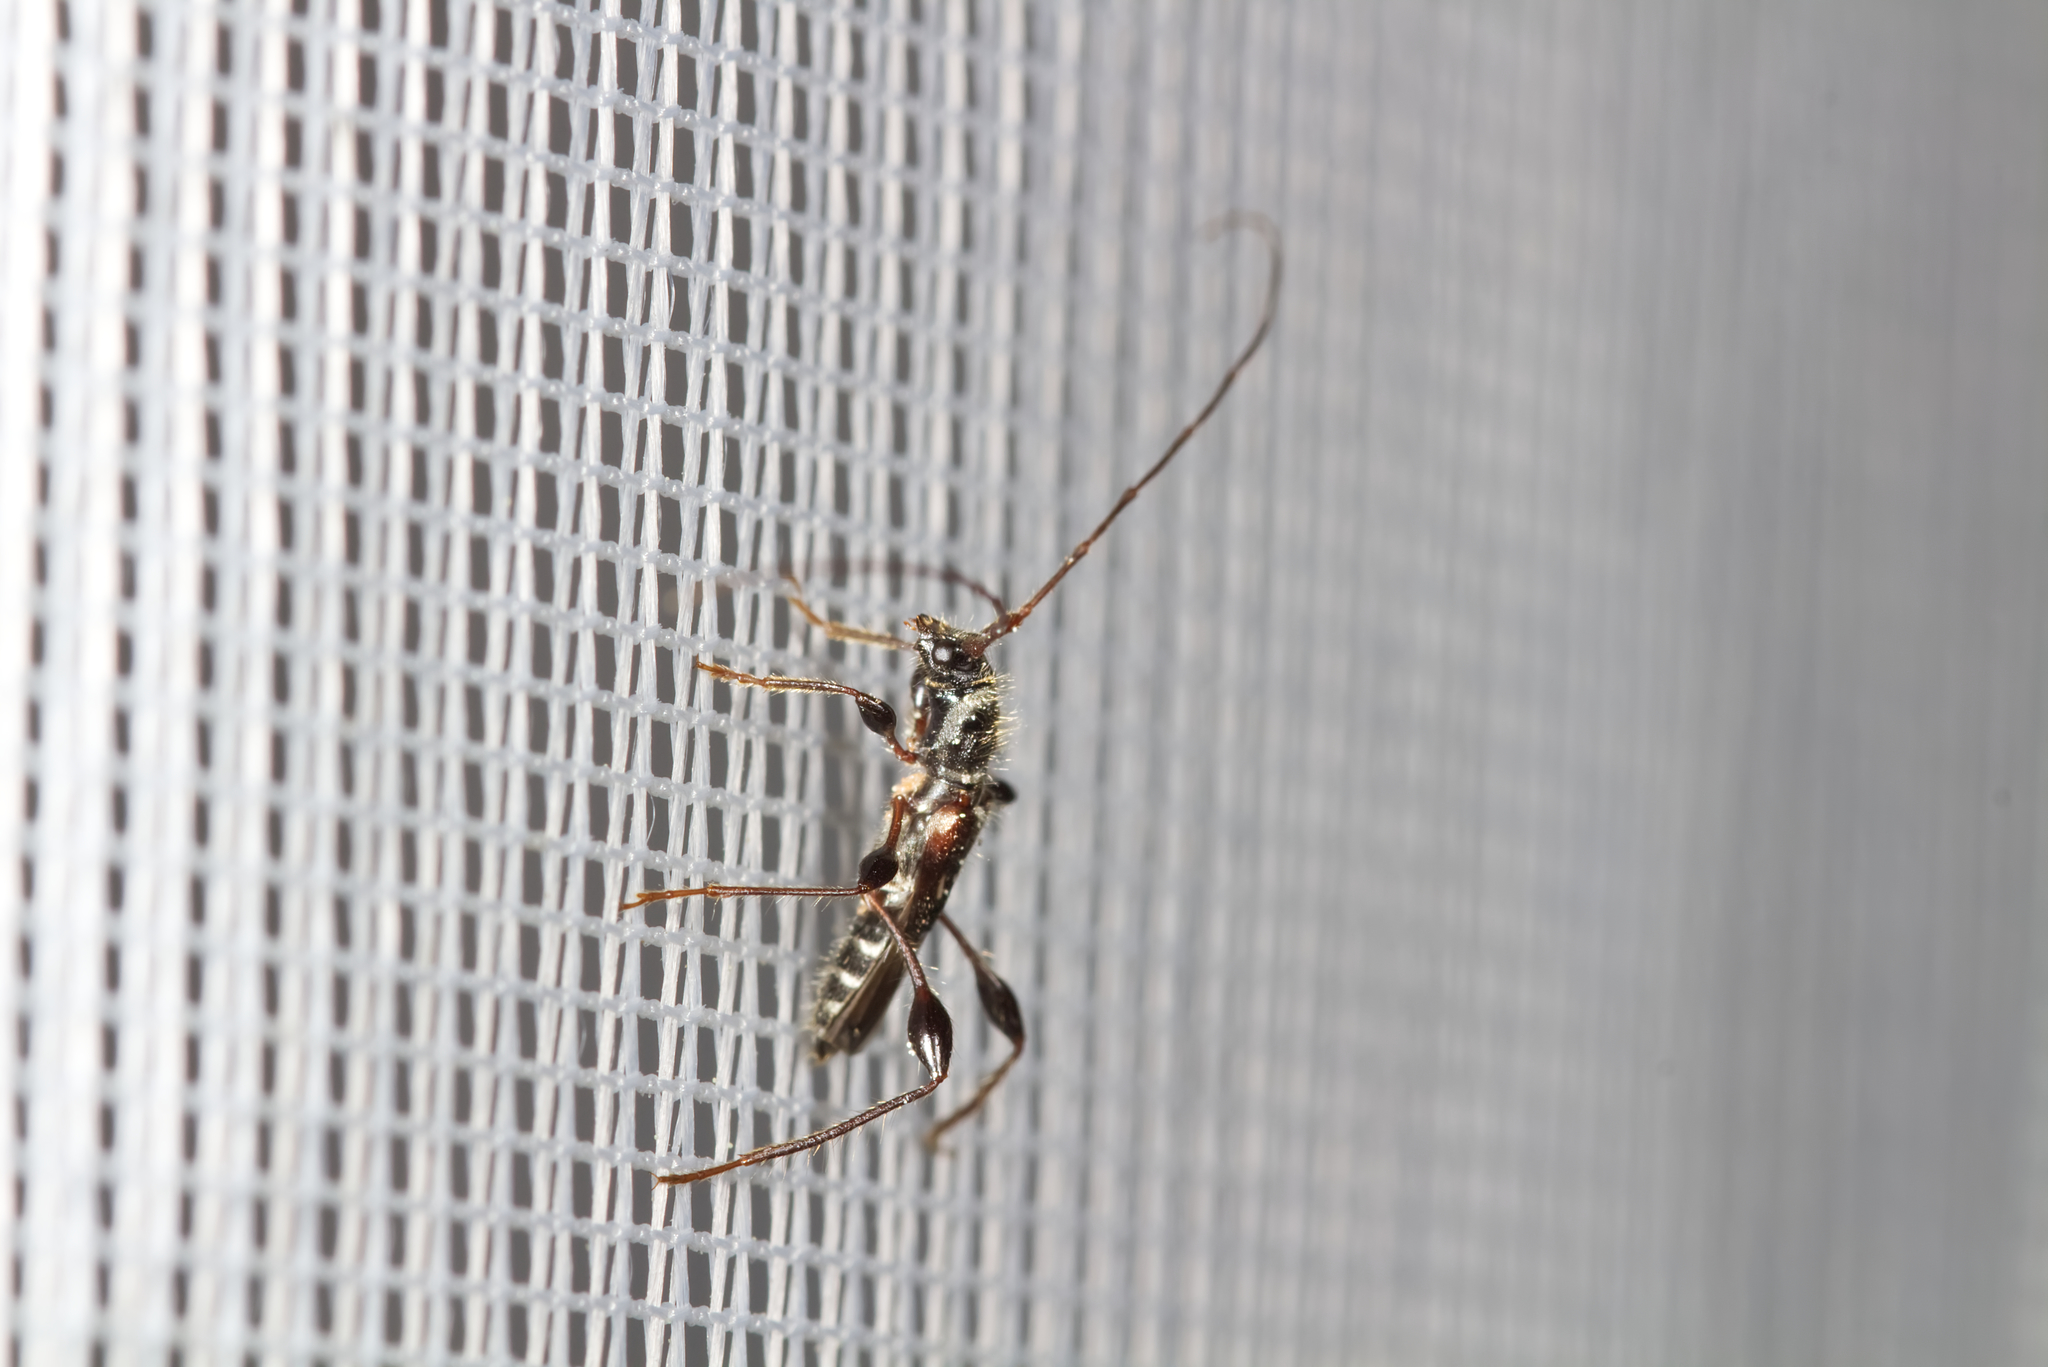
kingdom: Animalia
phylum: Arthropoda
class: Insecta
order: Coleoptera
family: Cerambycidae
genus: Molorchus
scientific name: Molorchus minor
